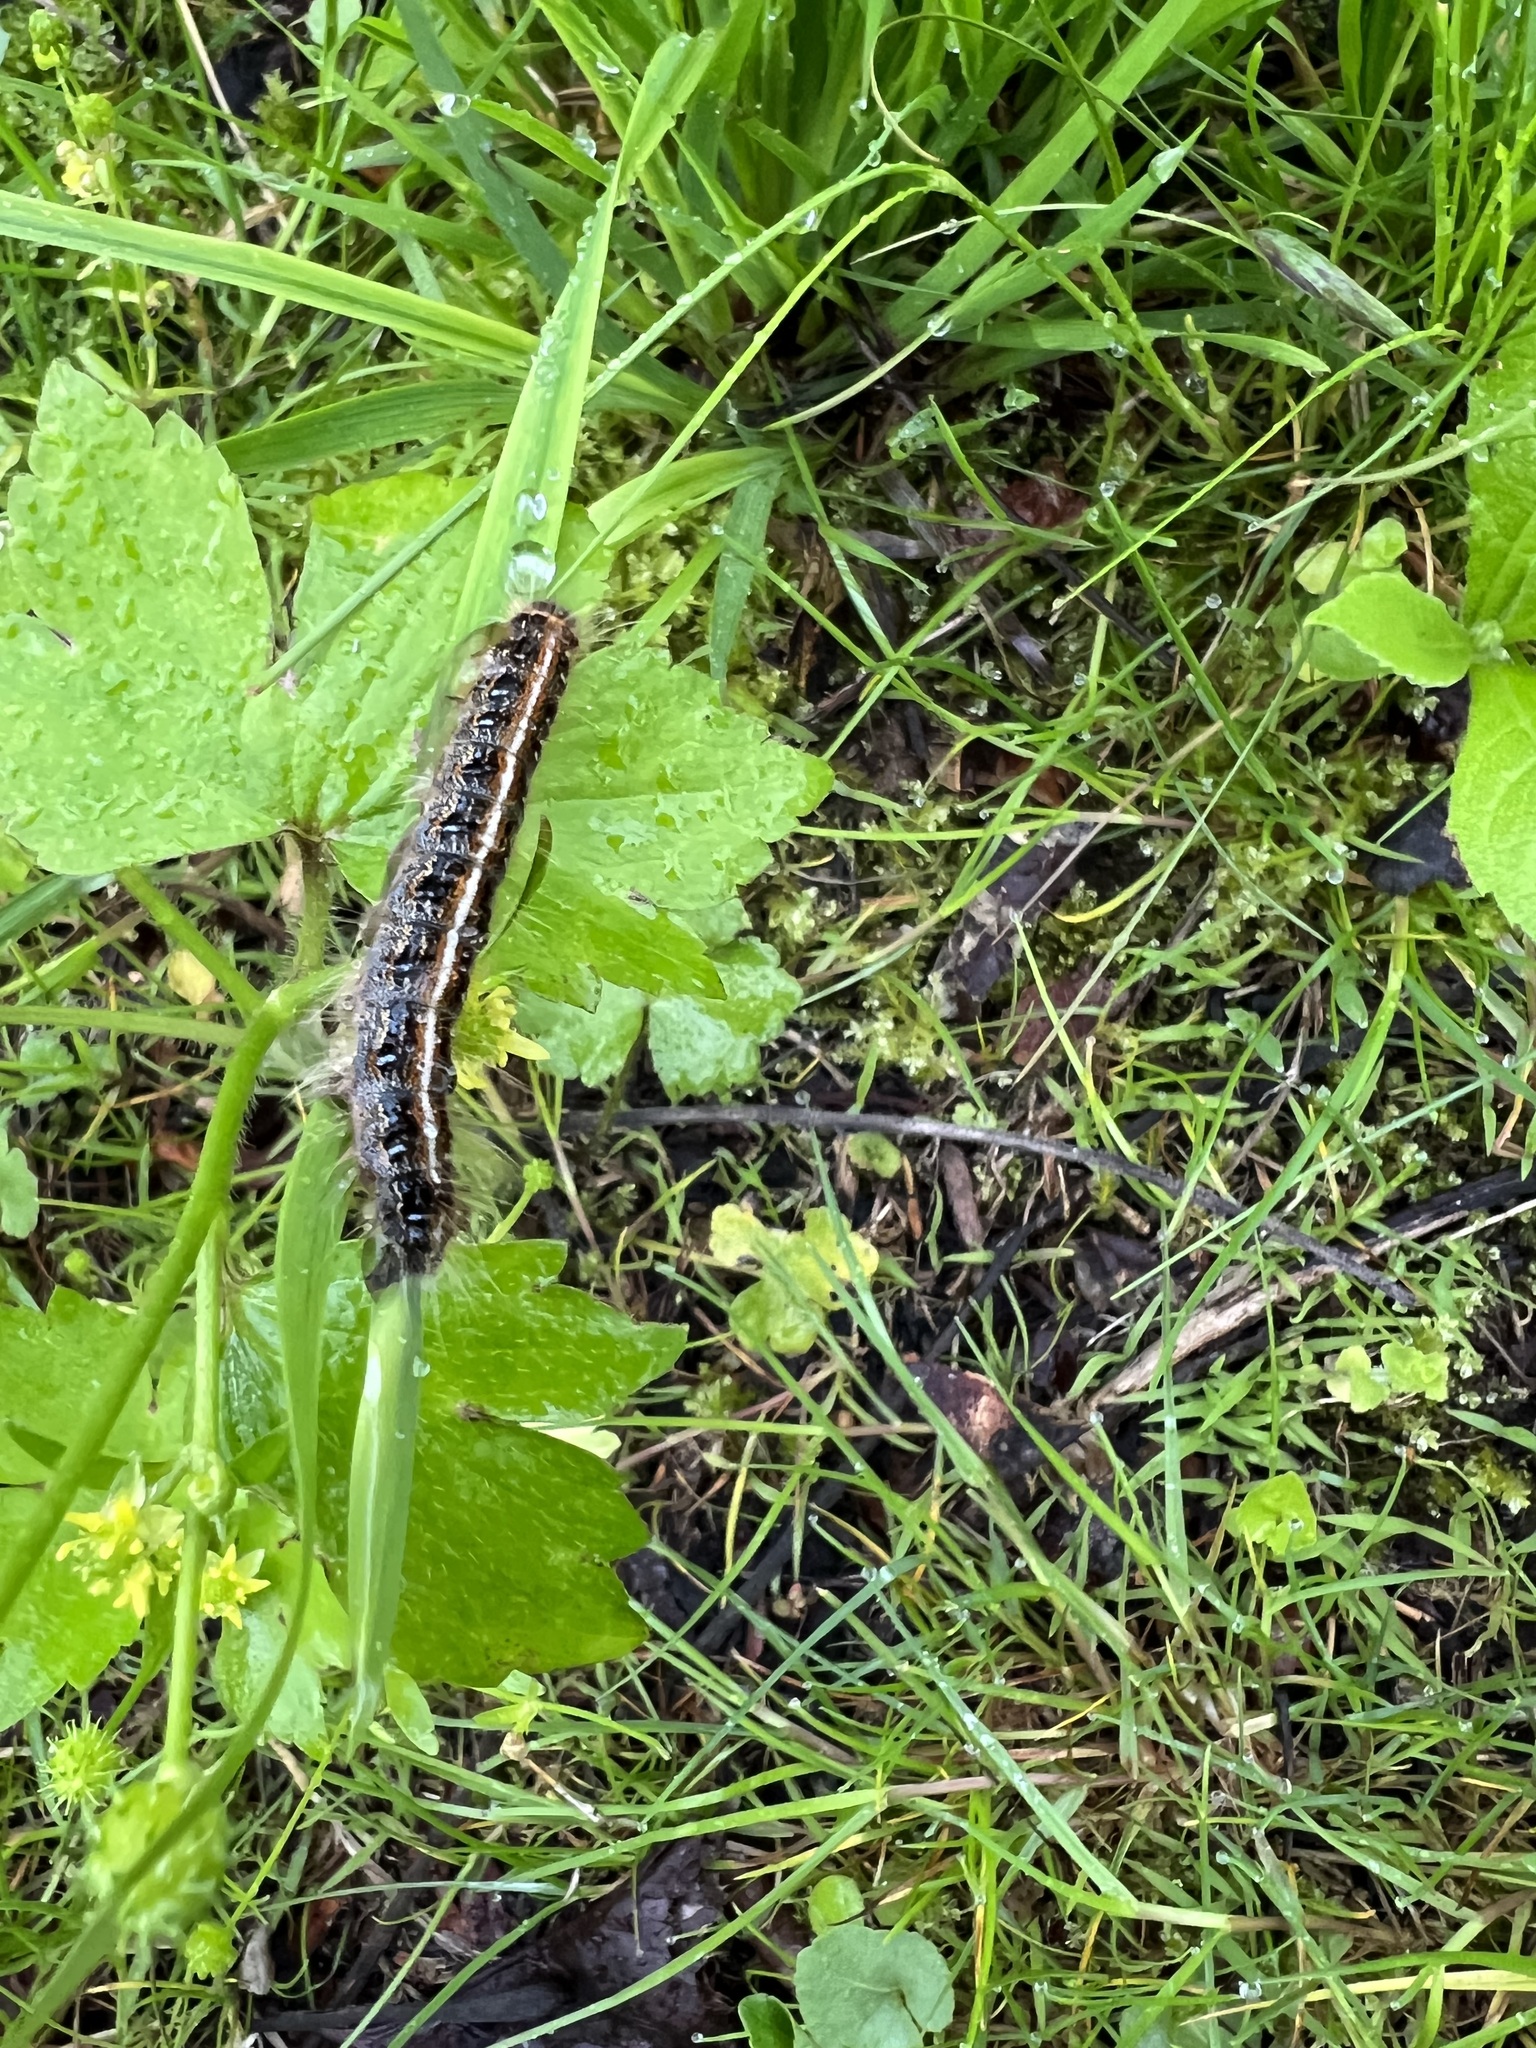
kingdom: Animalia
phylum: Arthropoda
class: Insecta
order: Lepidoptera
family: Lasiocampidae
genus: Malacosoma
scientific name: Malacosoma americana
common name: Eastern tent caterpillar moth
